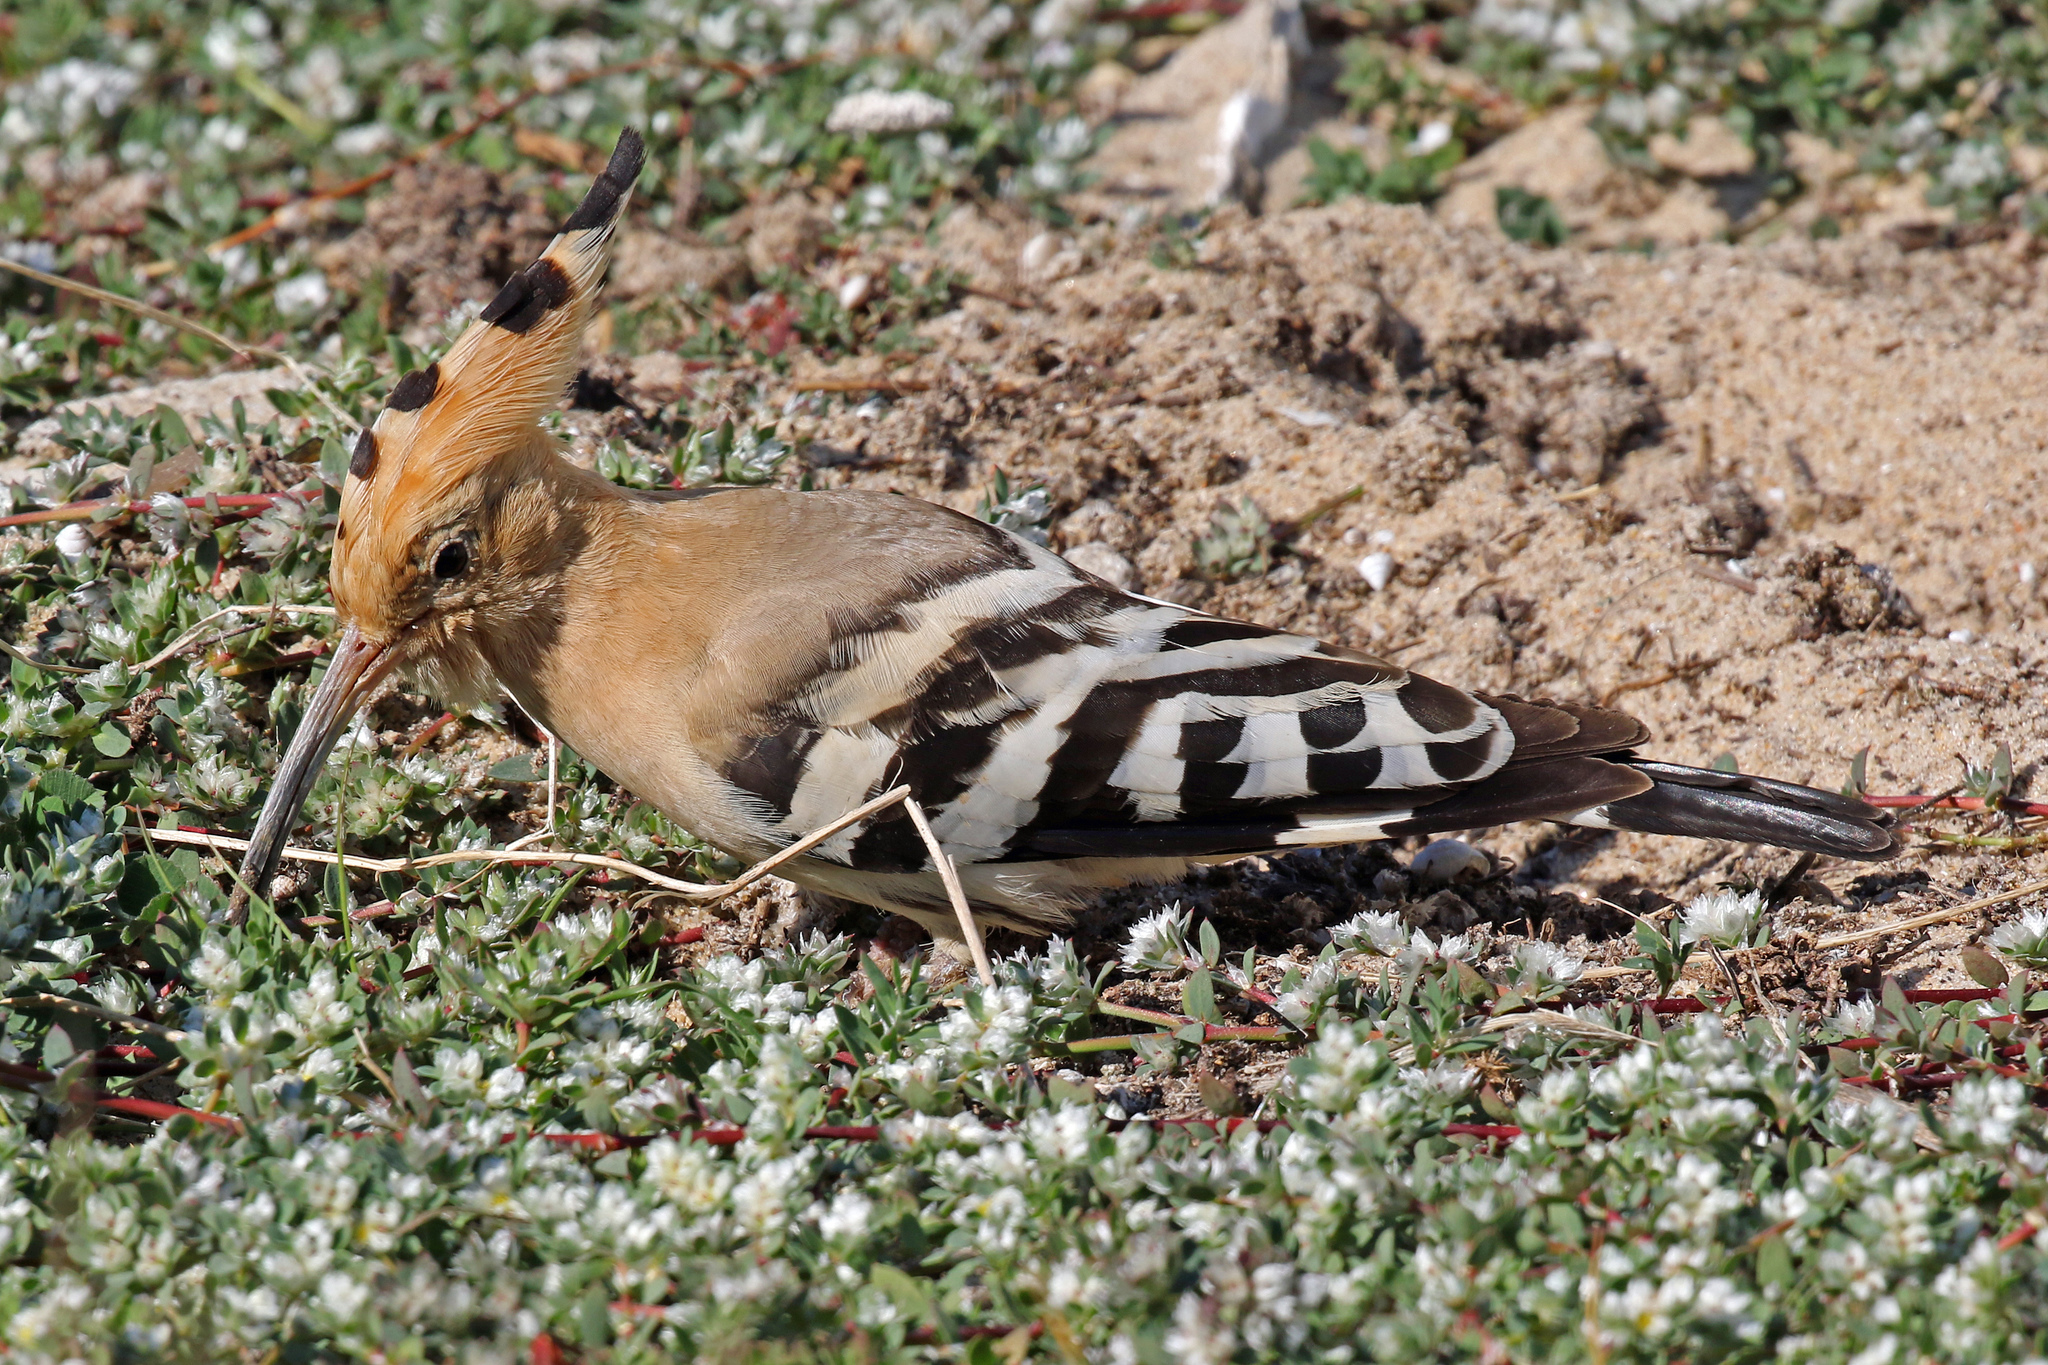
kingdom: Animalia
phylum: Chordata
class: Aves
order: Bucerotiformes
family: Upupidae
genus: Upupa
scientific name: Upupa epops
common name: Eurasian hoopoe
